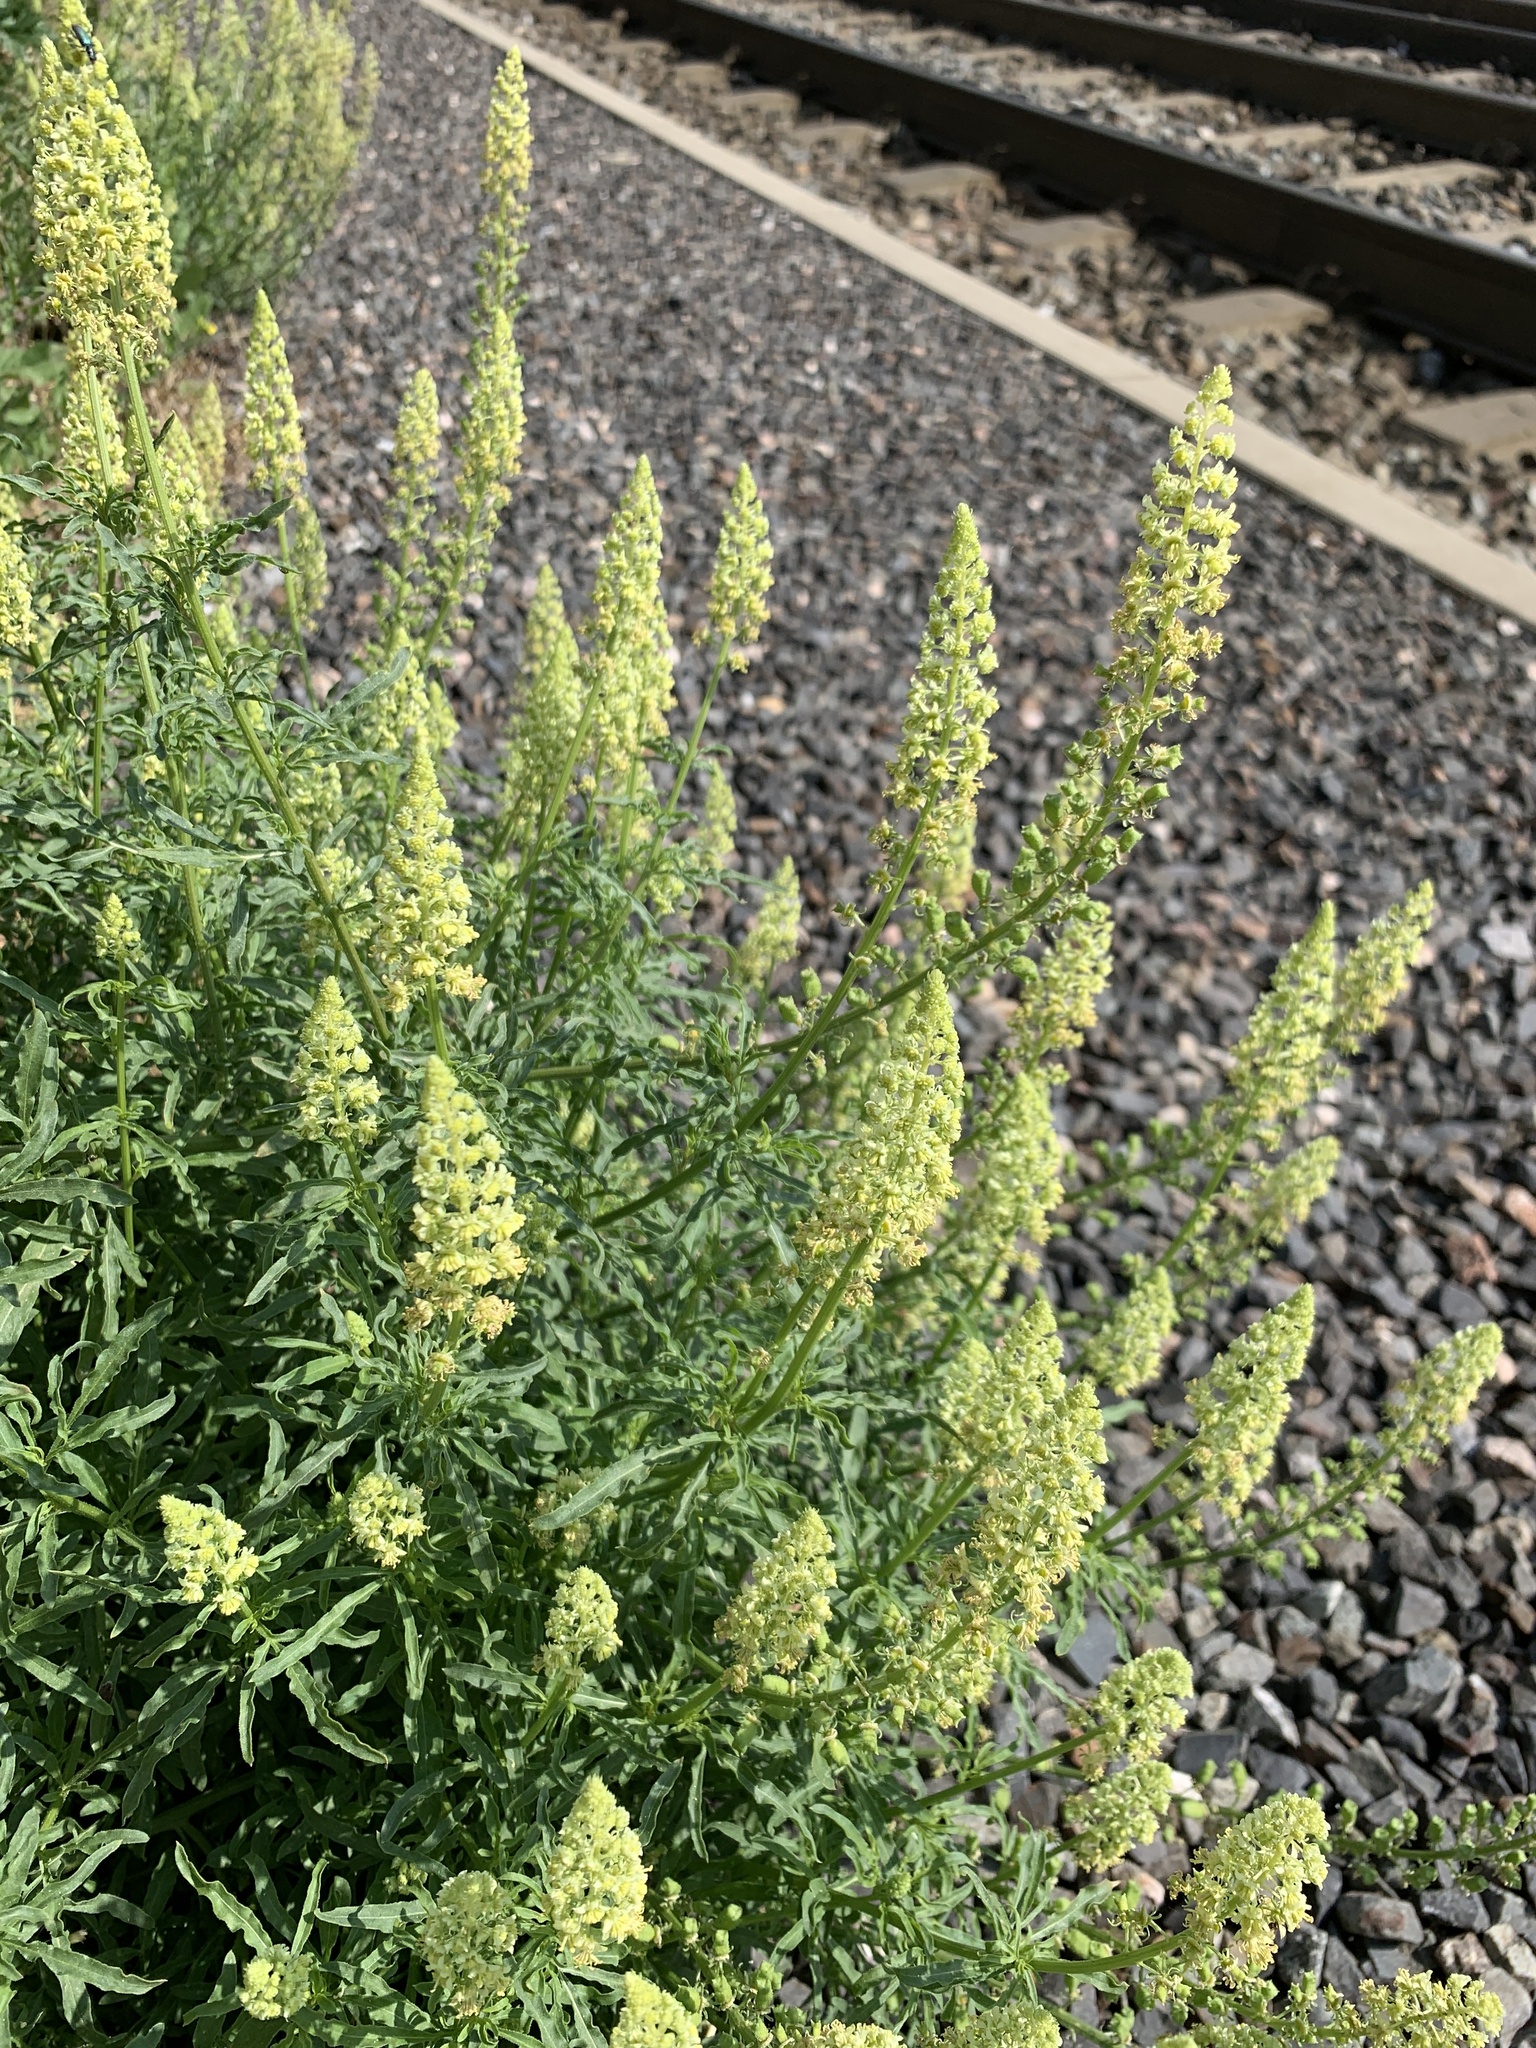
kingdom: Plantae
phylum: Tracheophyta
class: Magnoliopsida
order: Brassicales
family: Resedaceae
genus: Reseda
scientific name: Reseda lutea
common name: Wild mignonette
